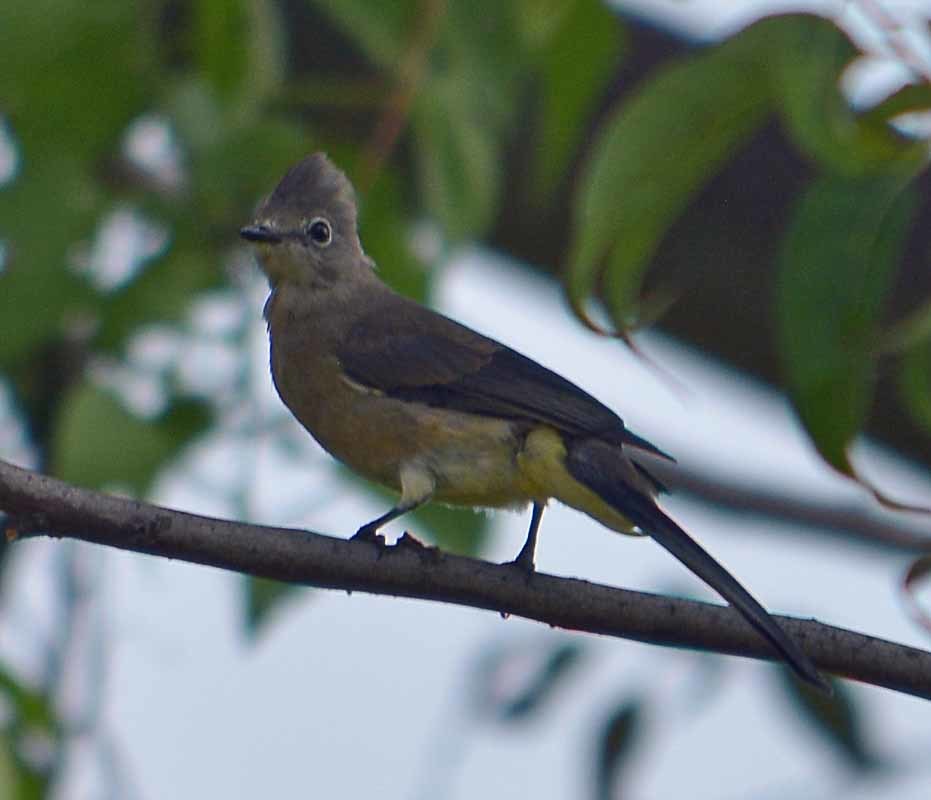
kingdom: Animalia
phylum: Chordata
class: Aves
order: Passeriformes
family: Ptilogonatidae
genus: Ptilogonys
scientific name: Ptilogonys cinereus
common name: Gray silky-flycatcher
